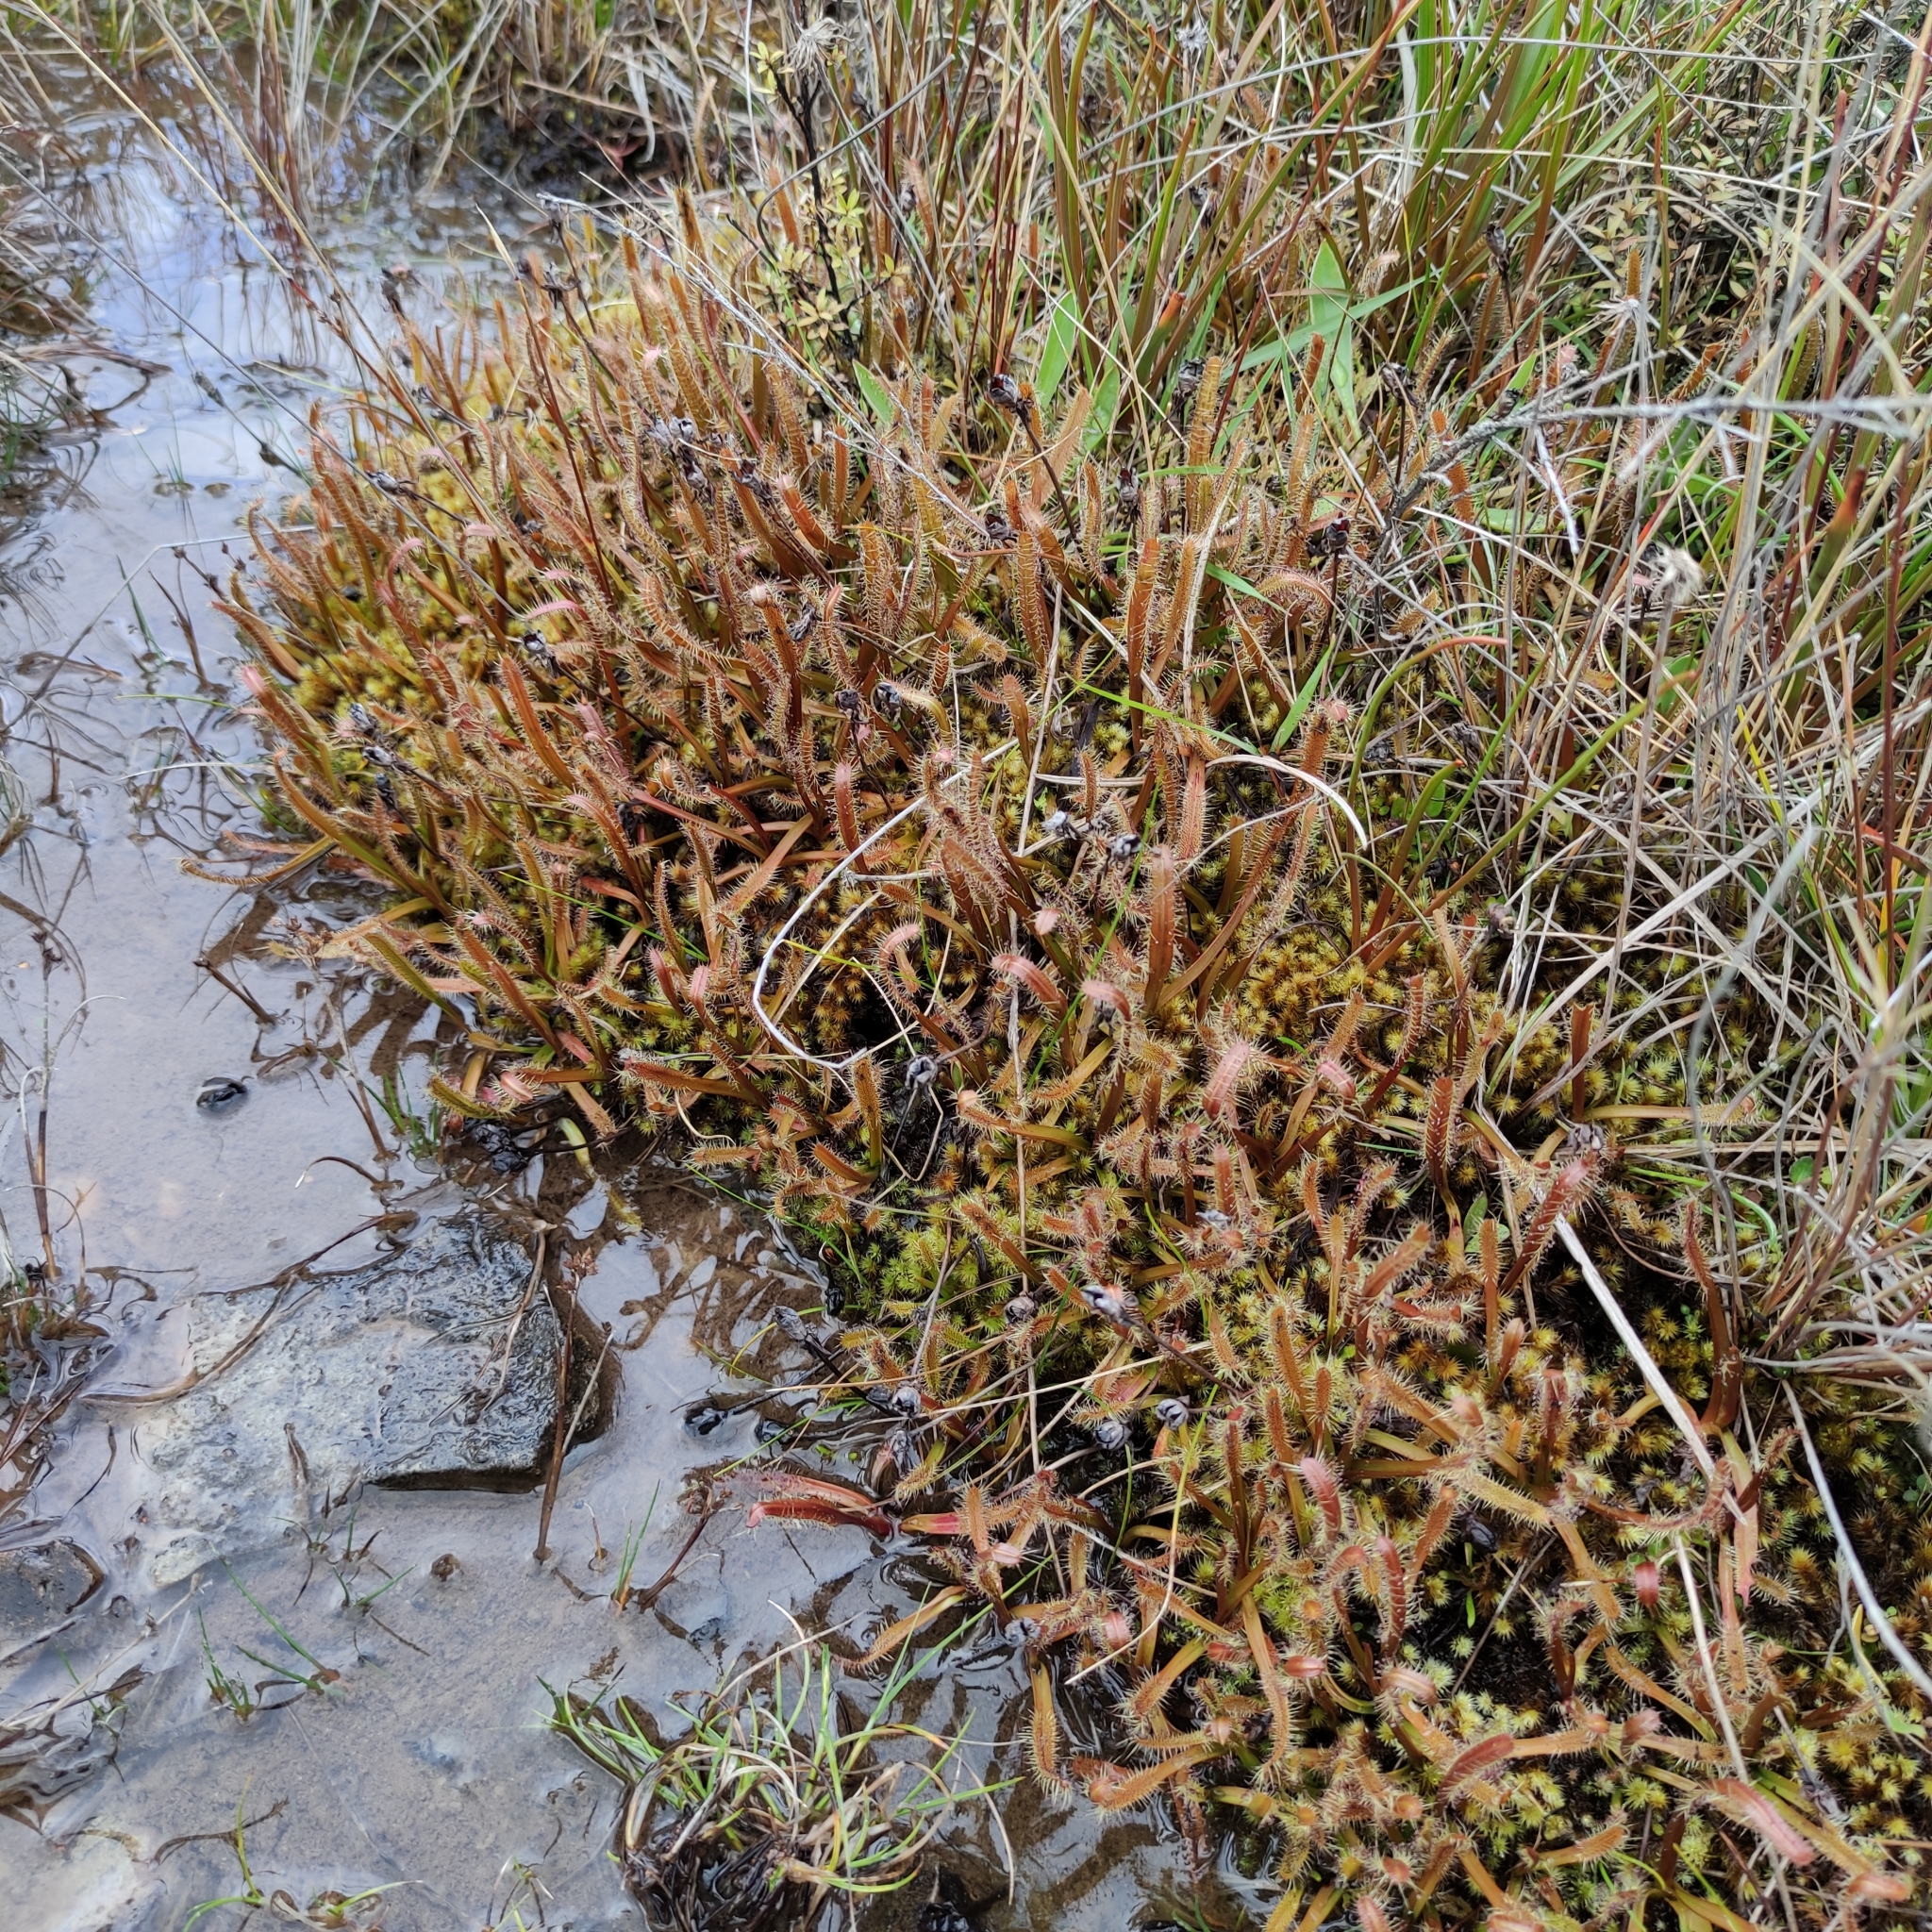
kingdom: Plantae
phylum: Tracheophyta
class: Magnoliopsida
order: Caryophyllales
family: Droseraceae
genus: Drosera
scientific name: Drosera arcturi
